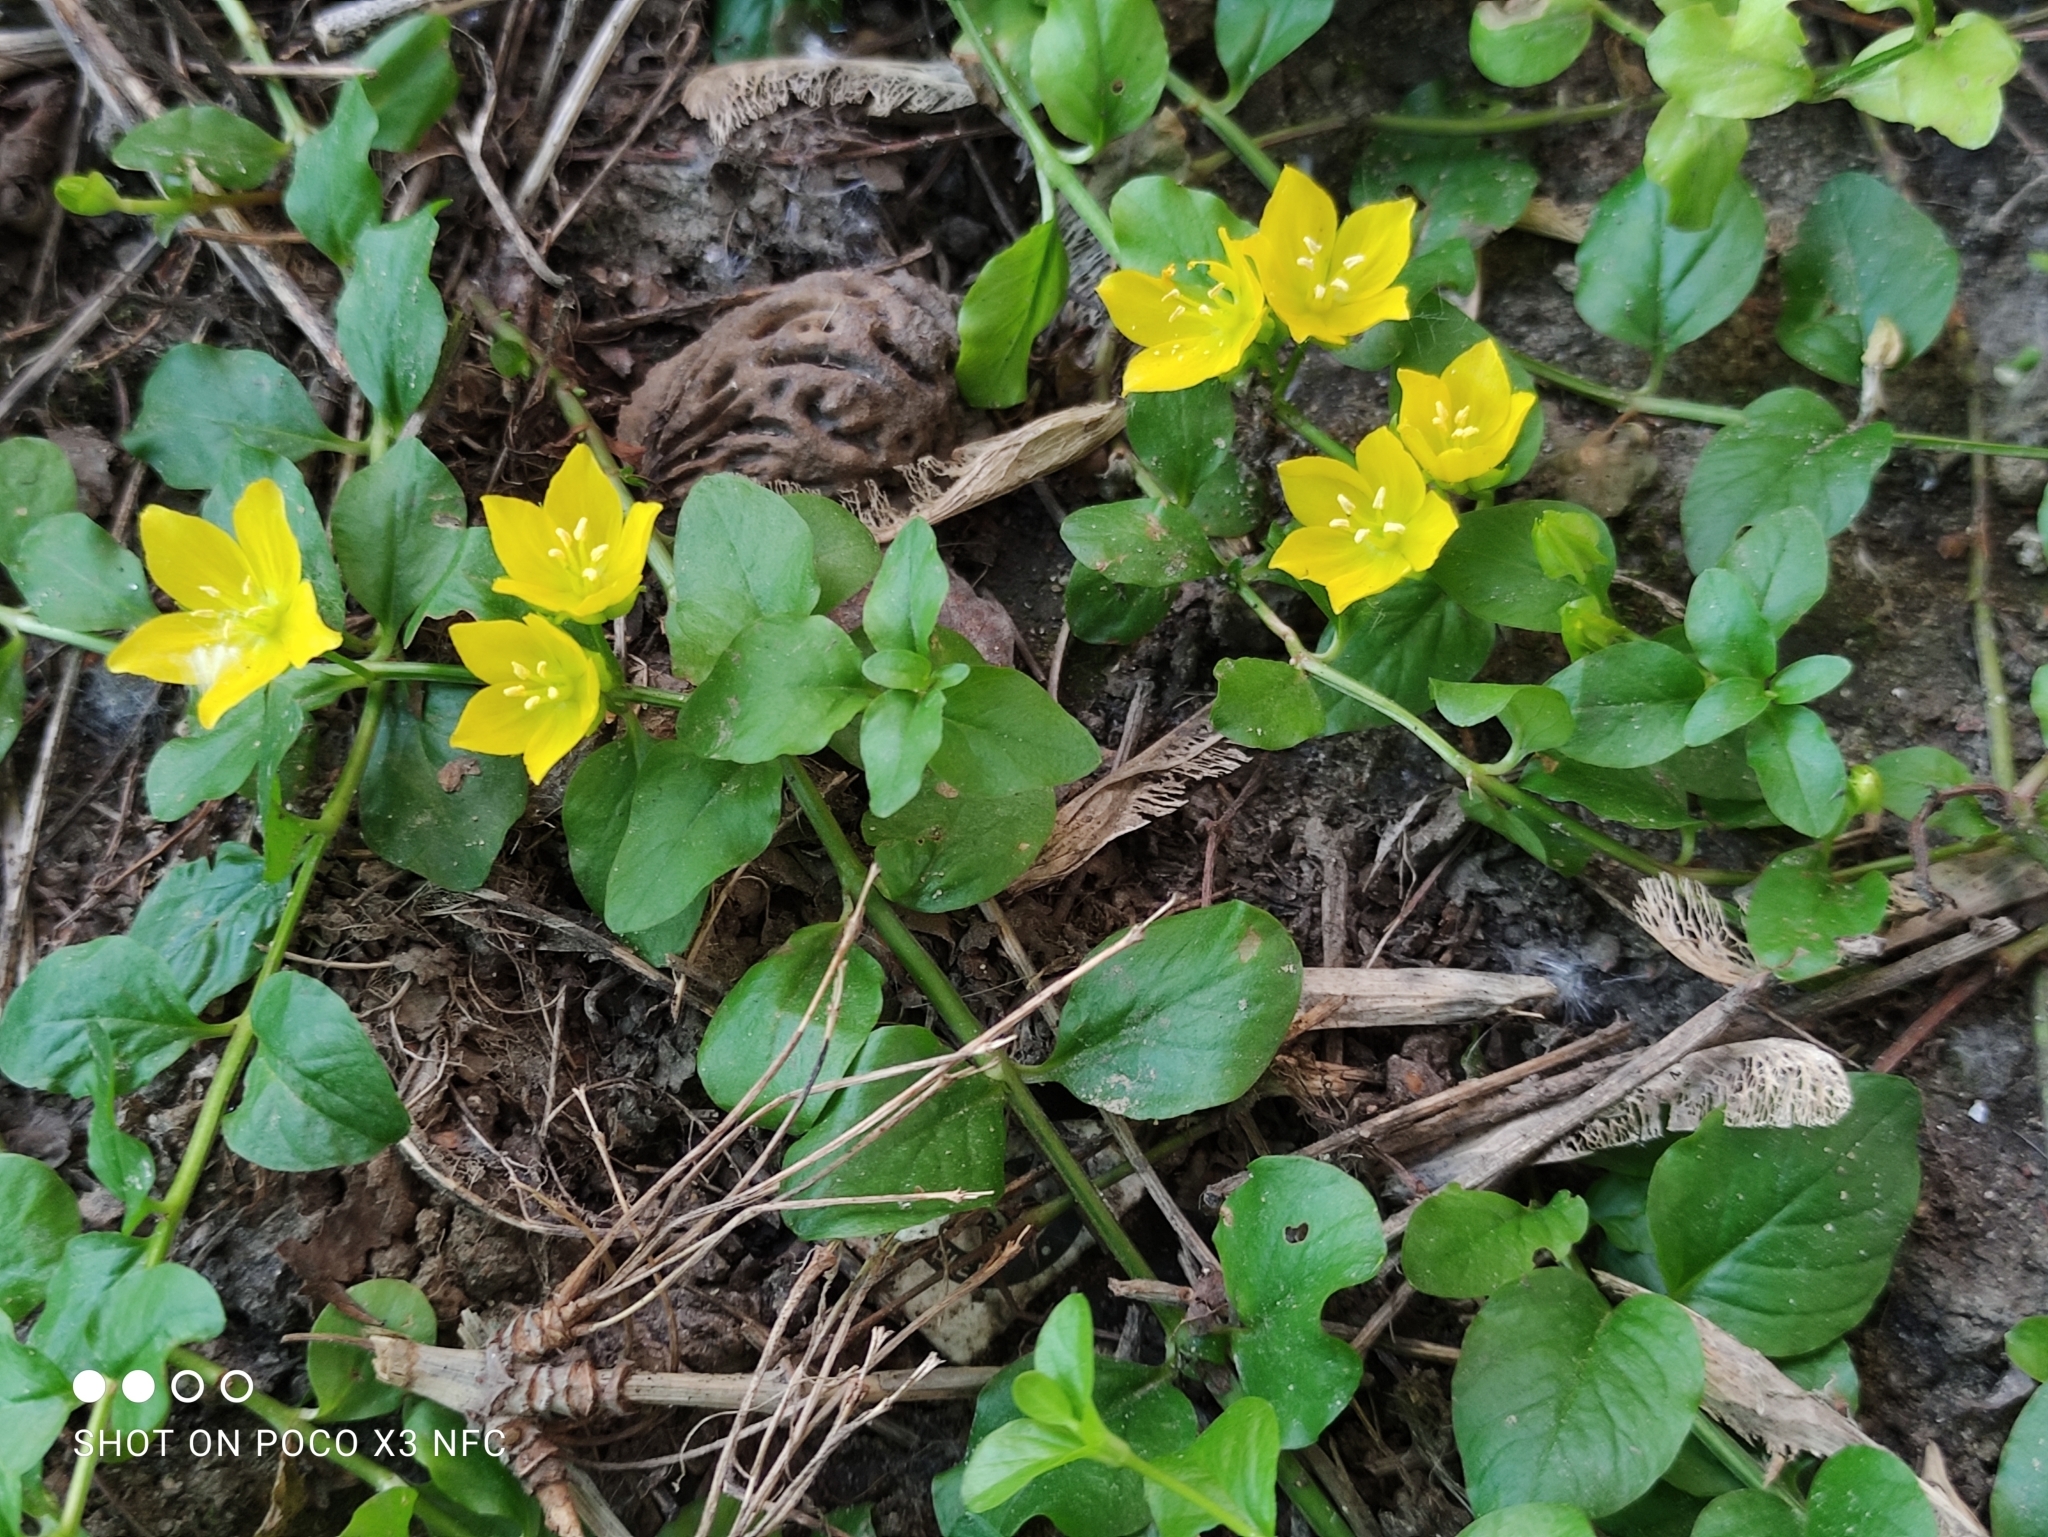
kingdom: Plantae
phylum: Tracheophyta
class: Magnoliopsida
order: Ericales
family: Primulaceae
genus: Lysimachia
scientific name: Lysimachia nummularia
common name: Moneywort
